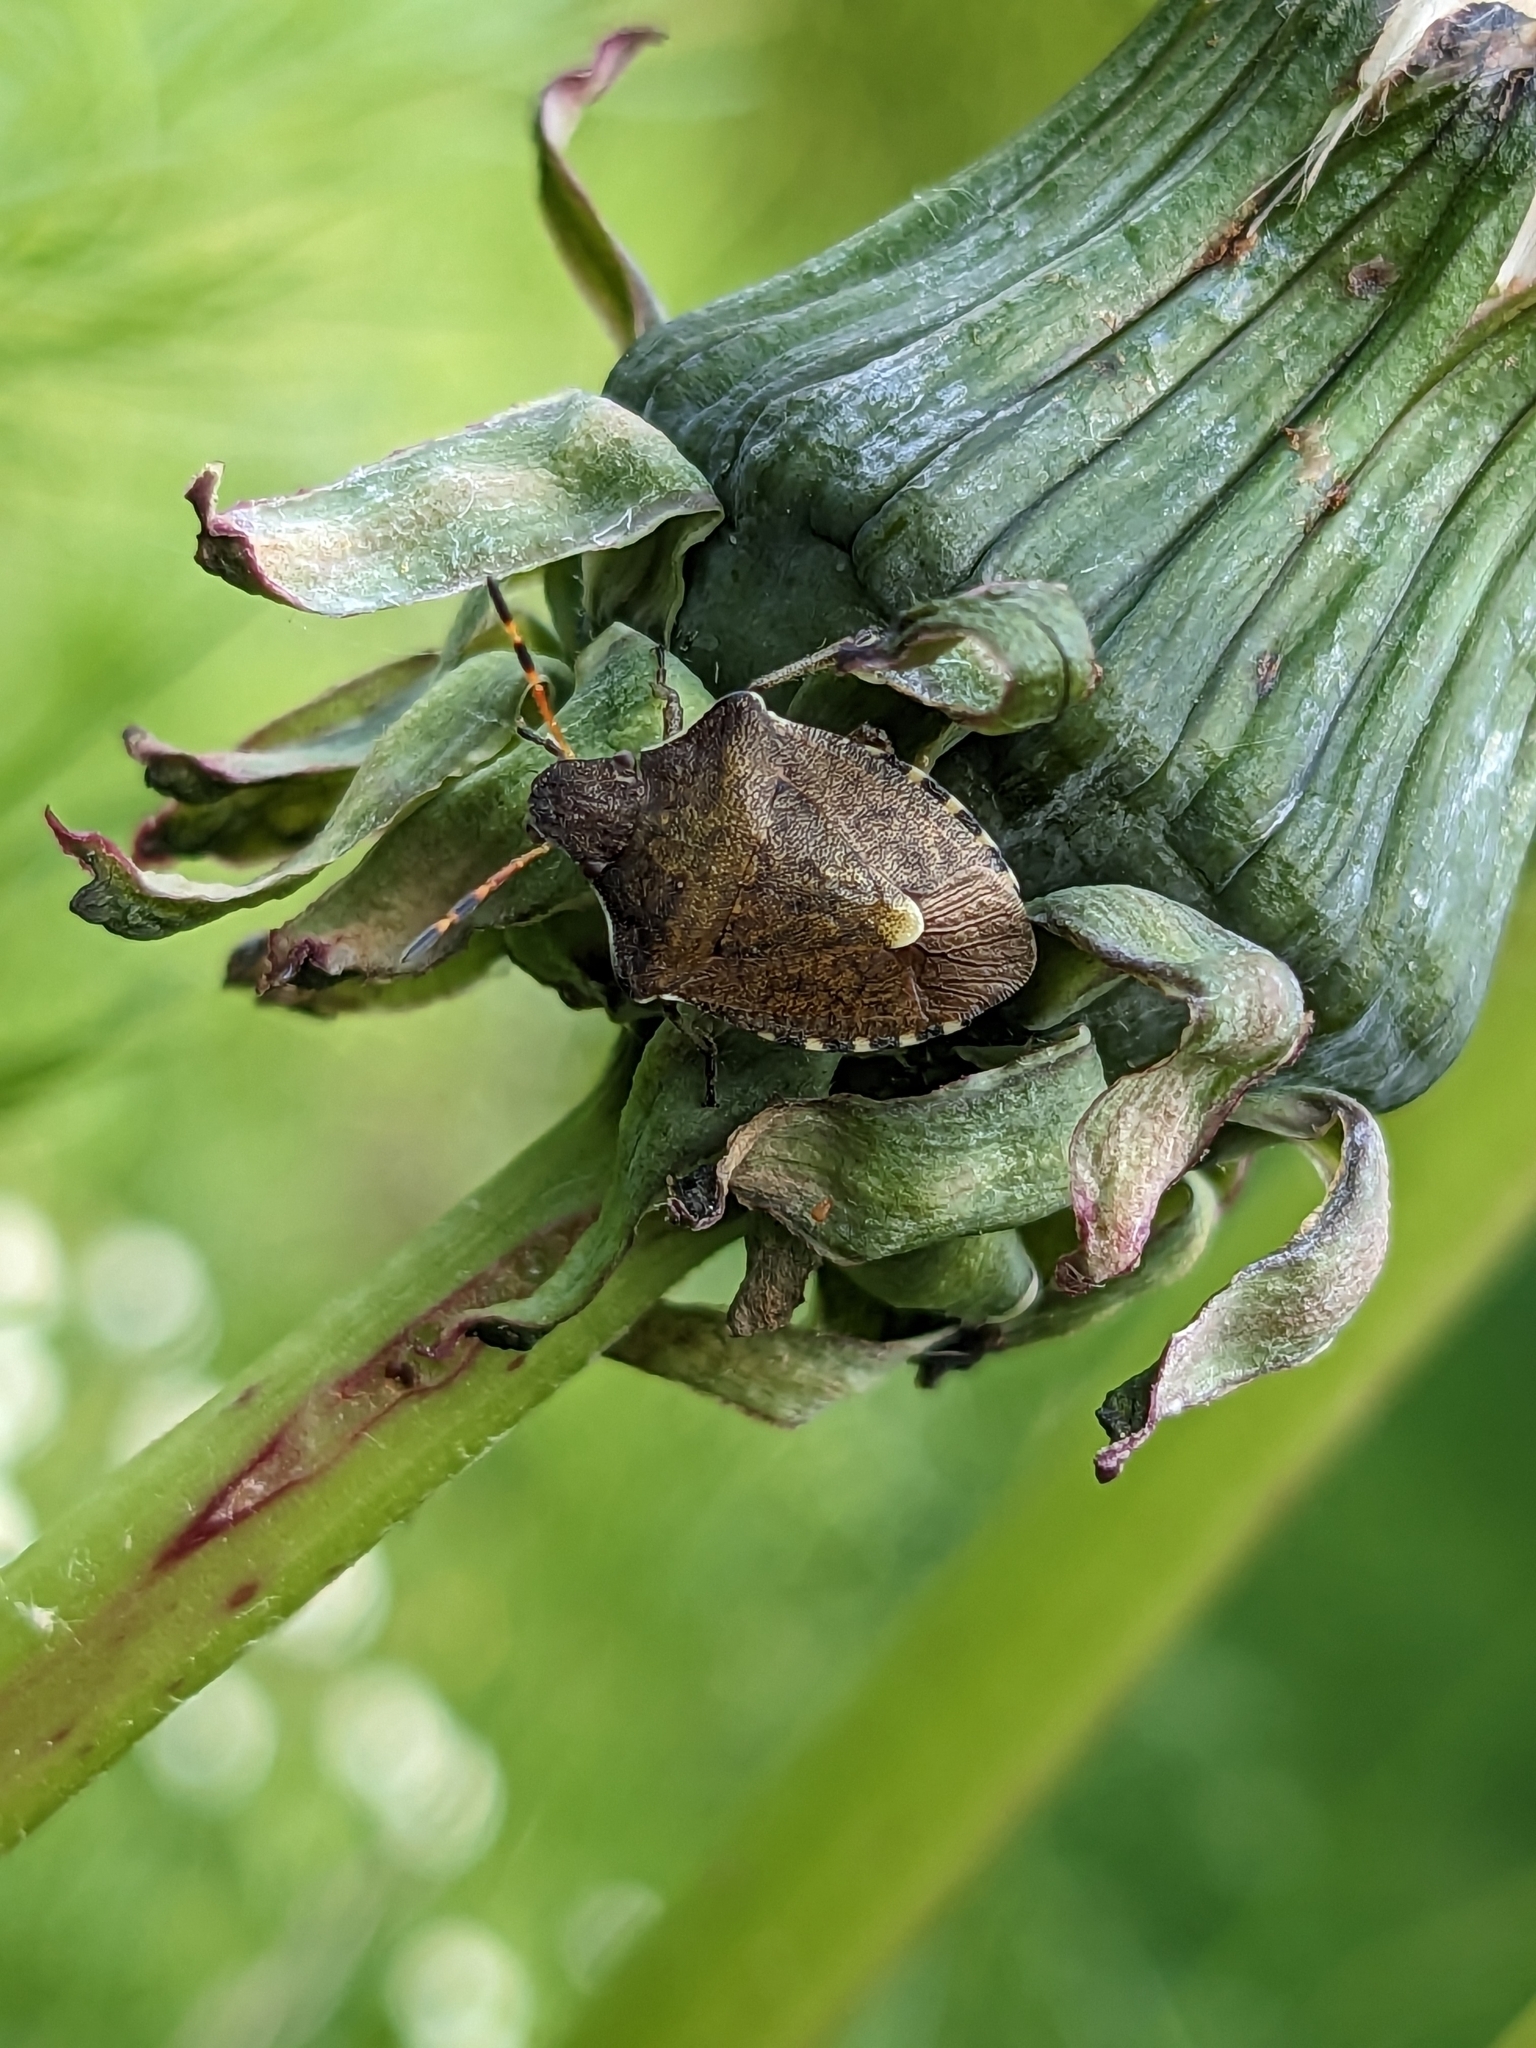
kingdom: Animalia
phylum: Arthropoda
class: Insecta
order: Hemiptera
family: Pentatomidae
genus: Holcostethus
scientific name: Holcostethus strictus
